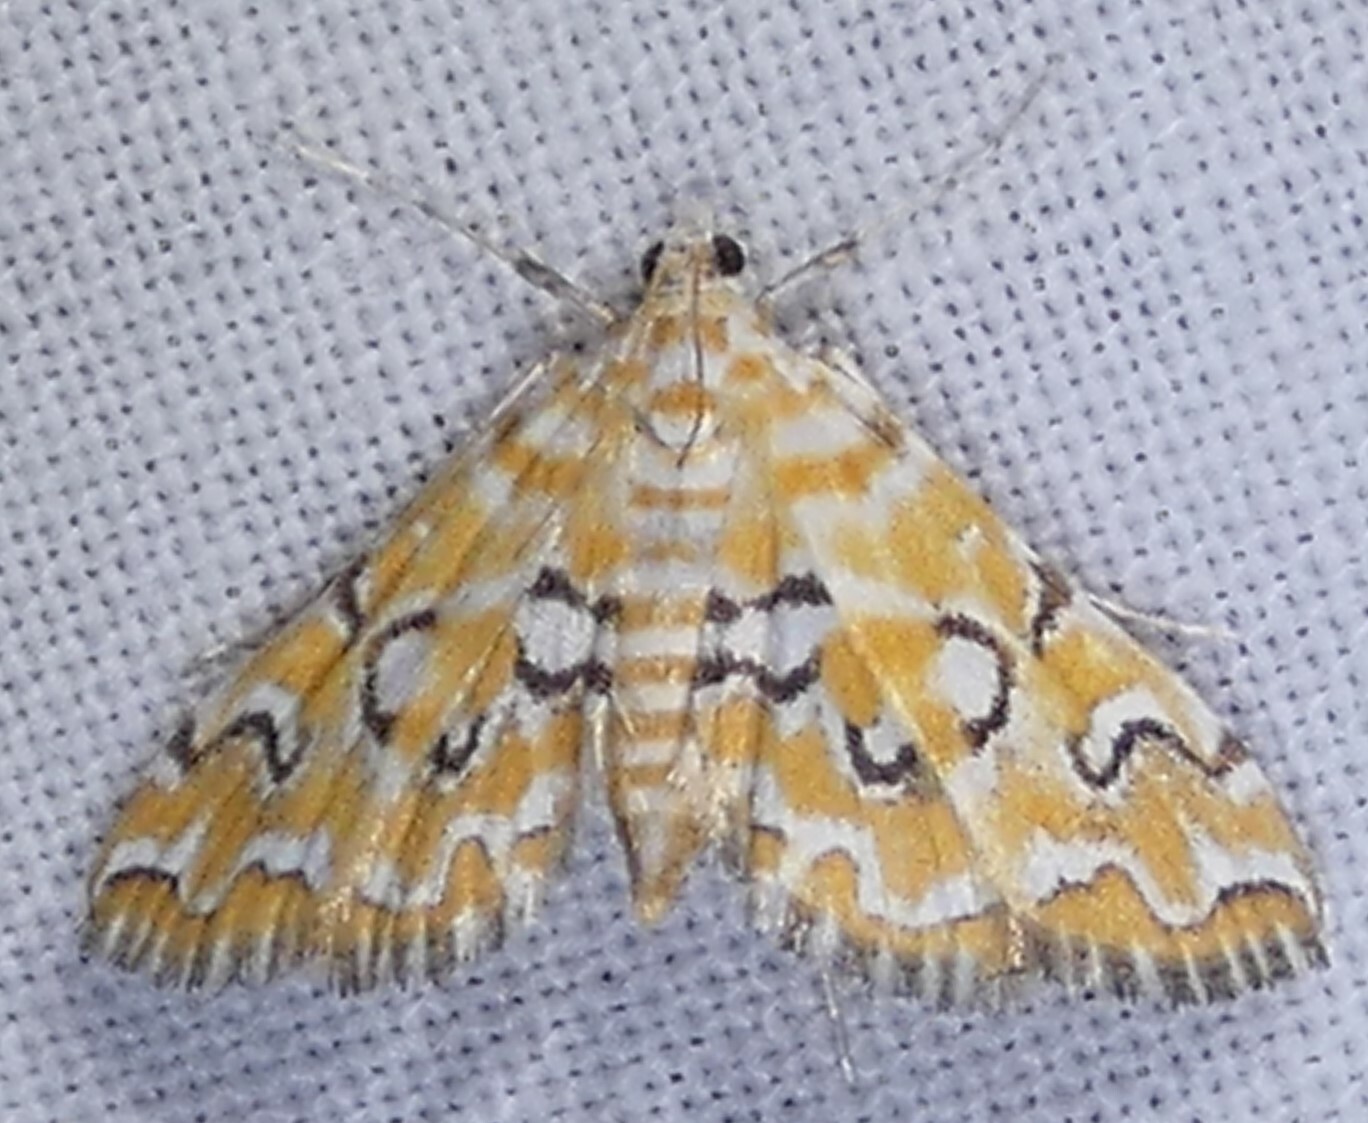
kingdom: Animalia
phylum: Arthropoda
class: Insecta
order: Lepidoptera
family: Crambidae
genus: Elophila
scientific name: Elophila icciusalis
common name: Pondside pyralid moth
